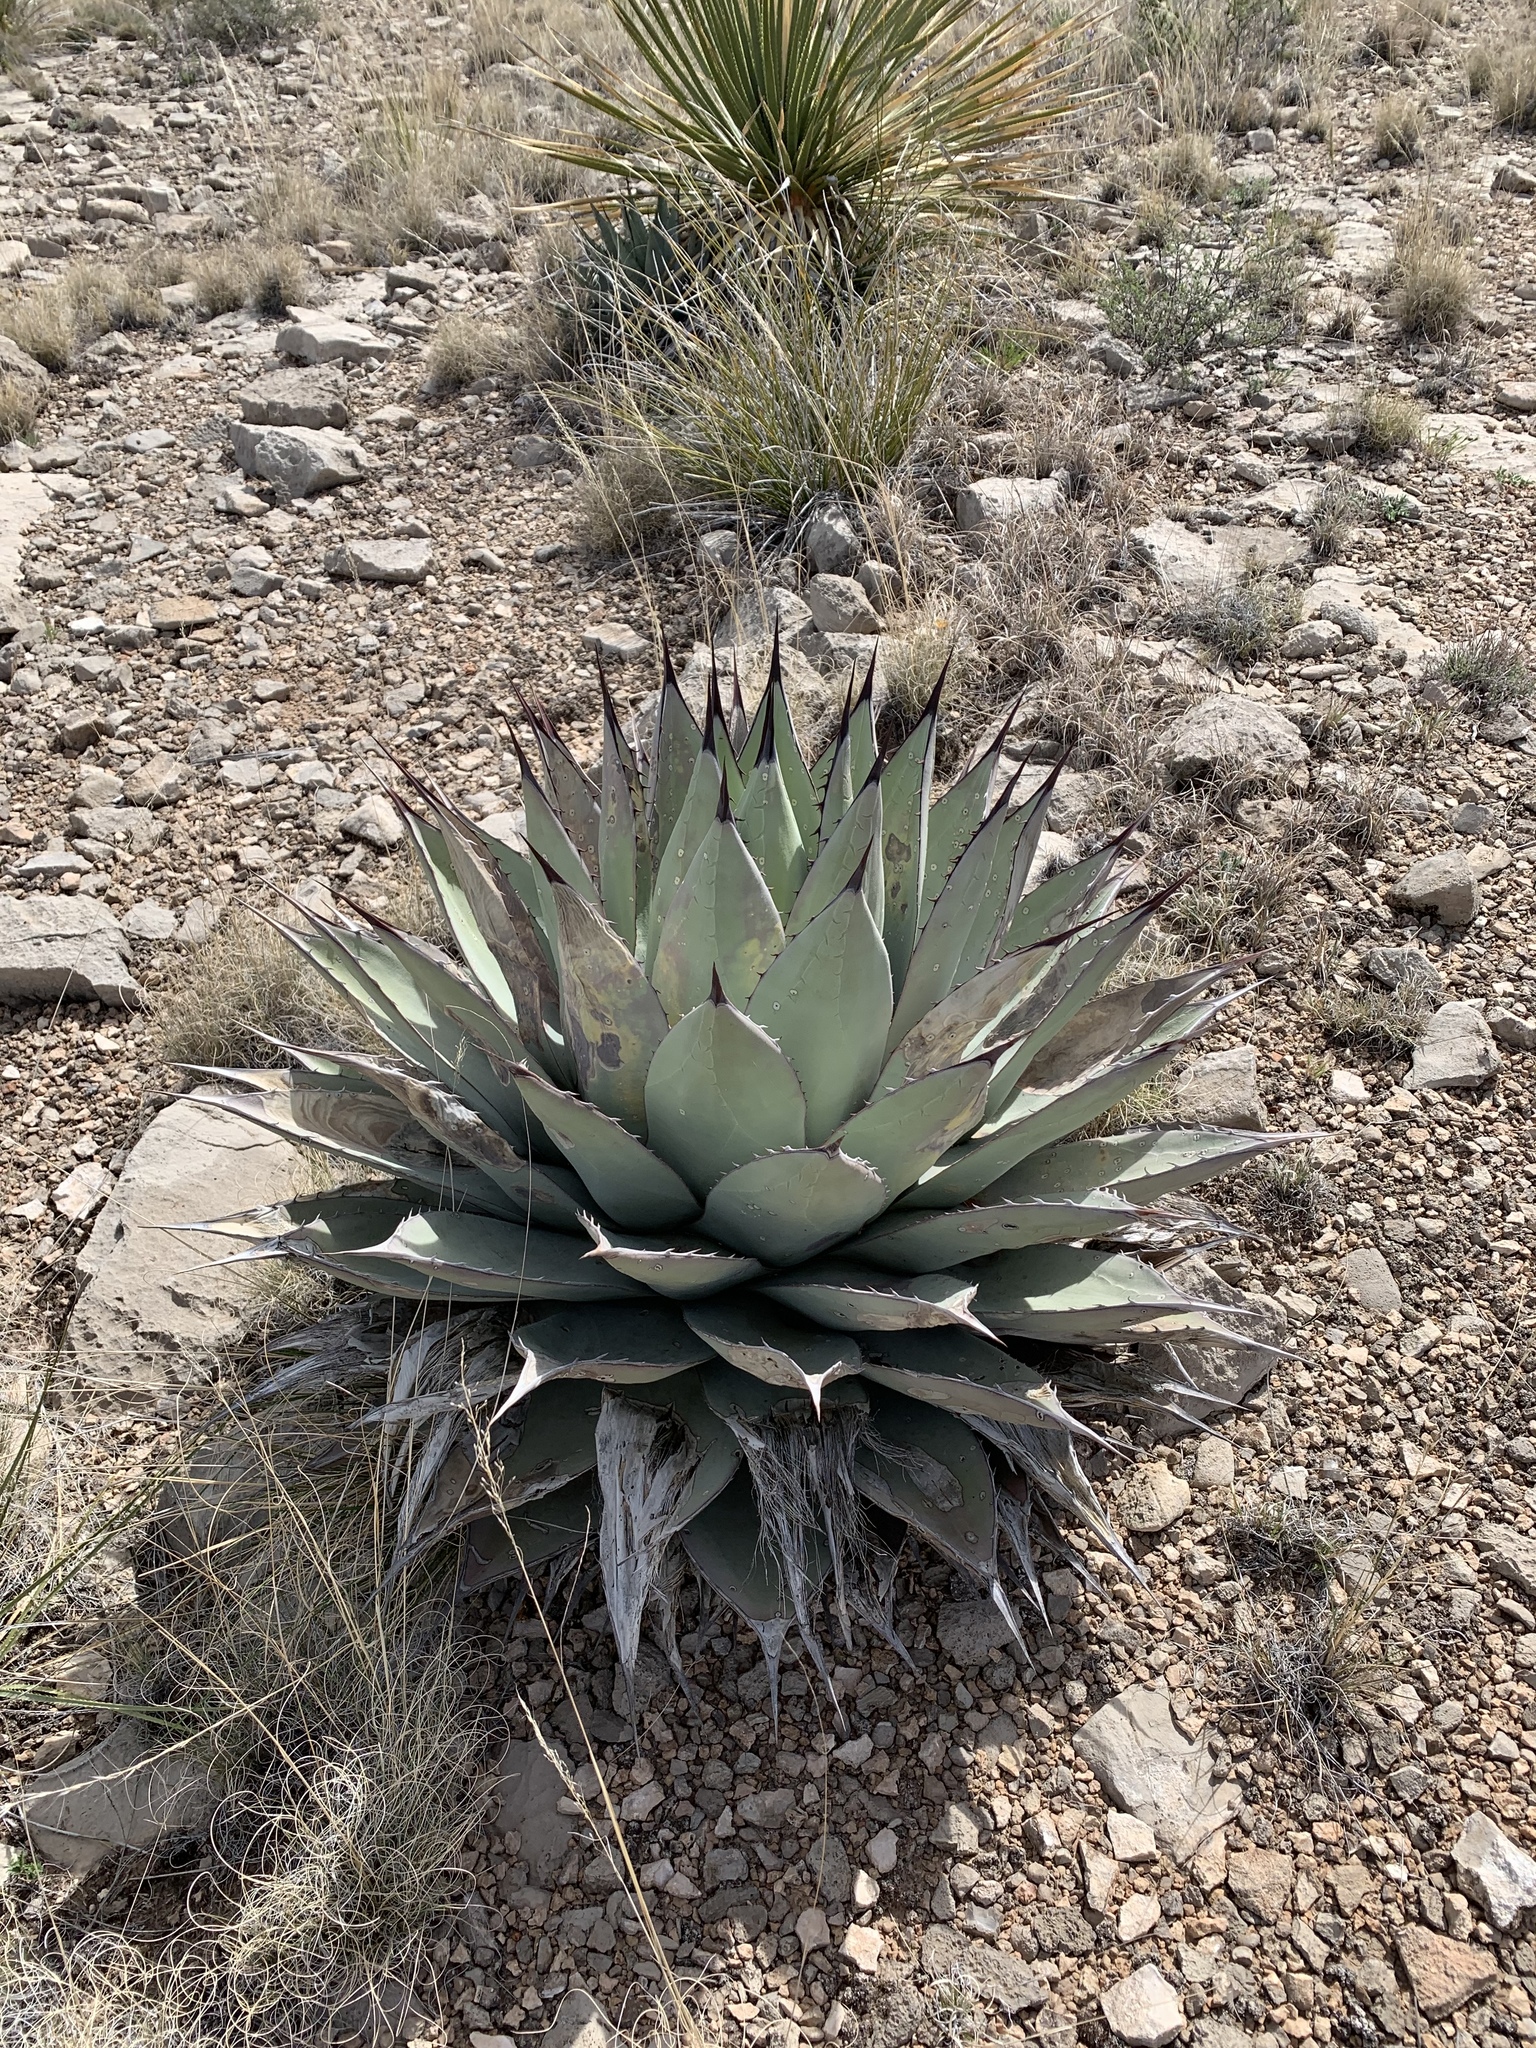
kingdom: Plantae
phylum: Tracheophyta
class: Liliopsida
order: Asparagales
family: Asparagaceae
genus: Agave
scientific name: Agave parryi
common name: Parry's agave
